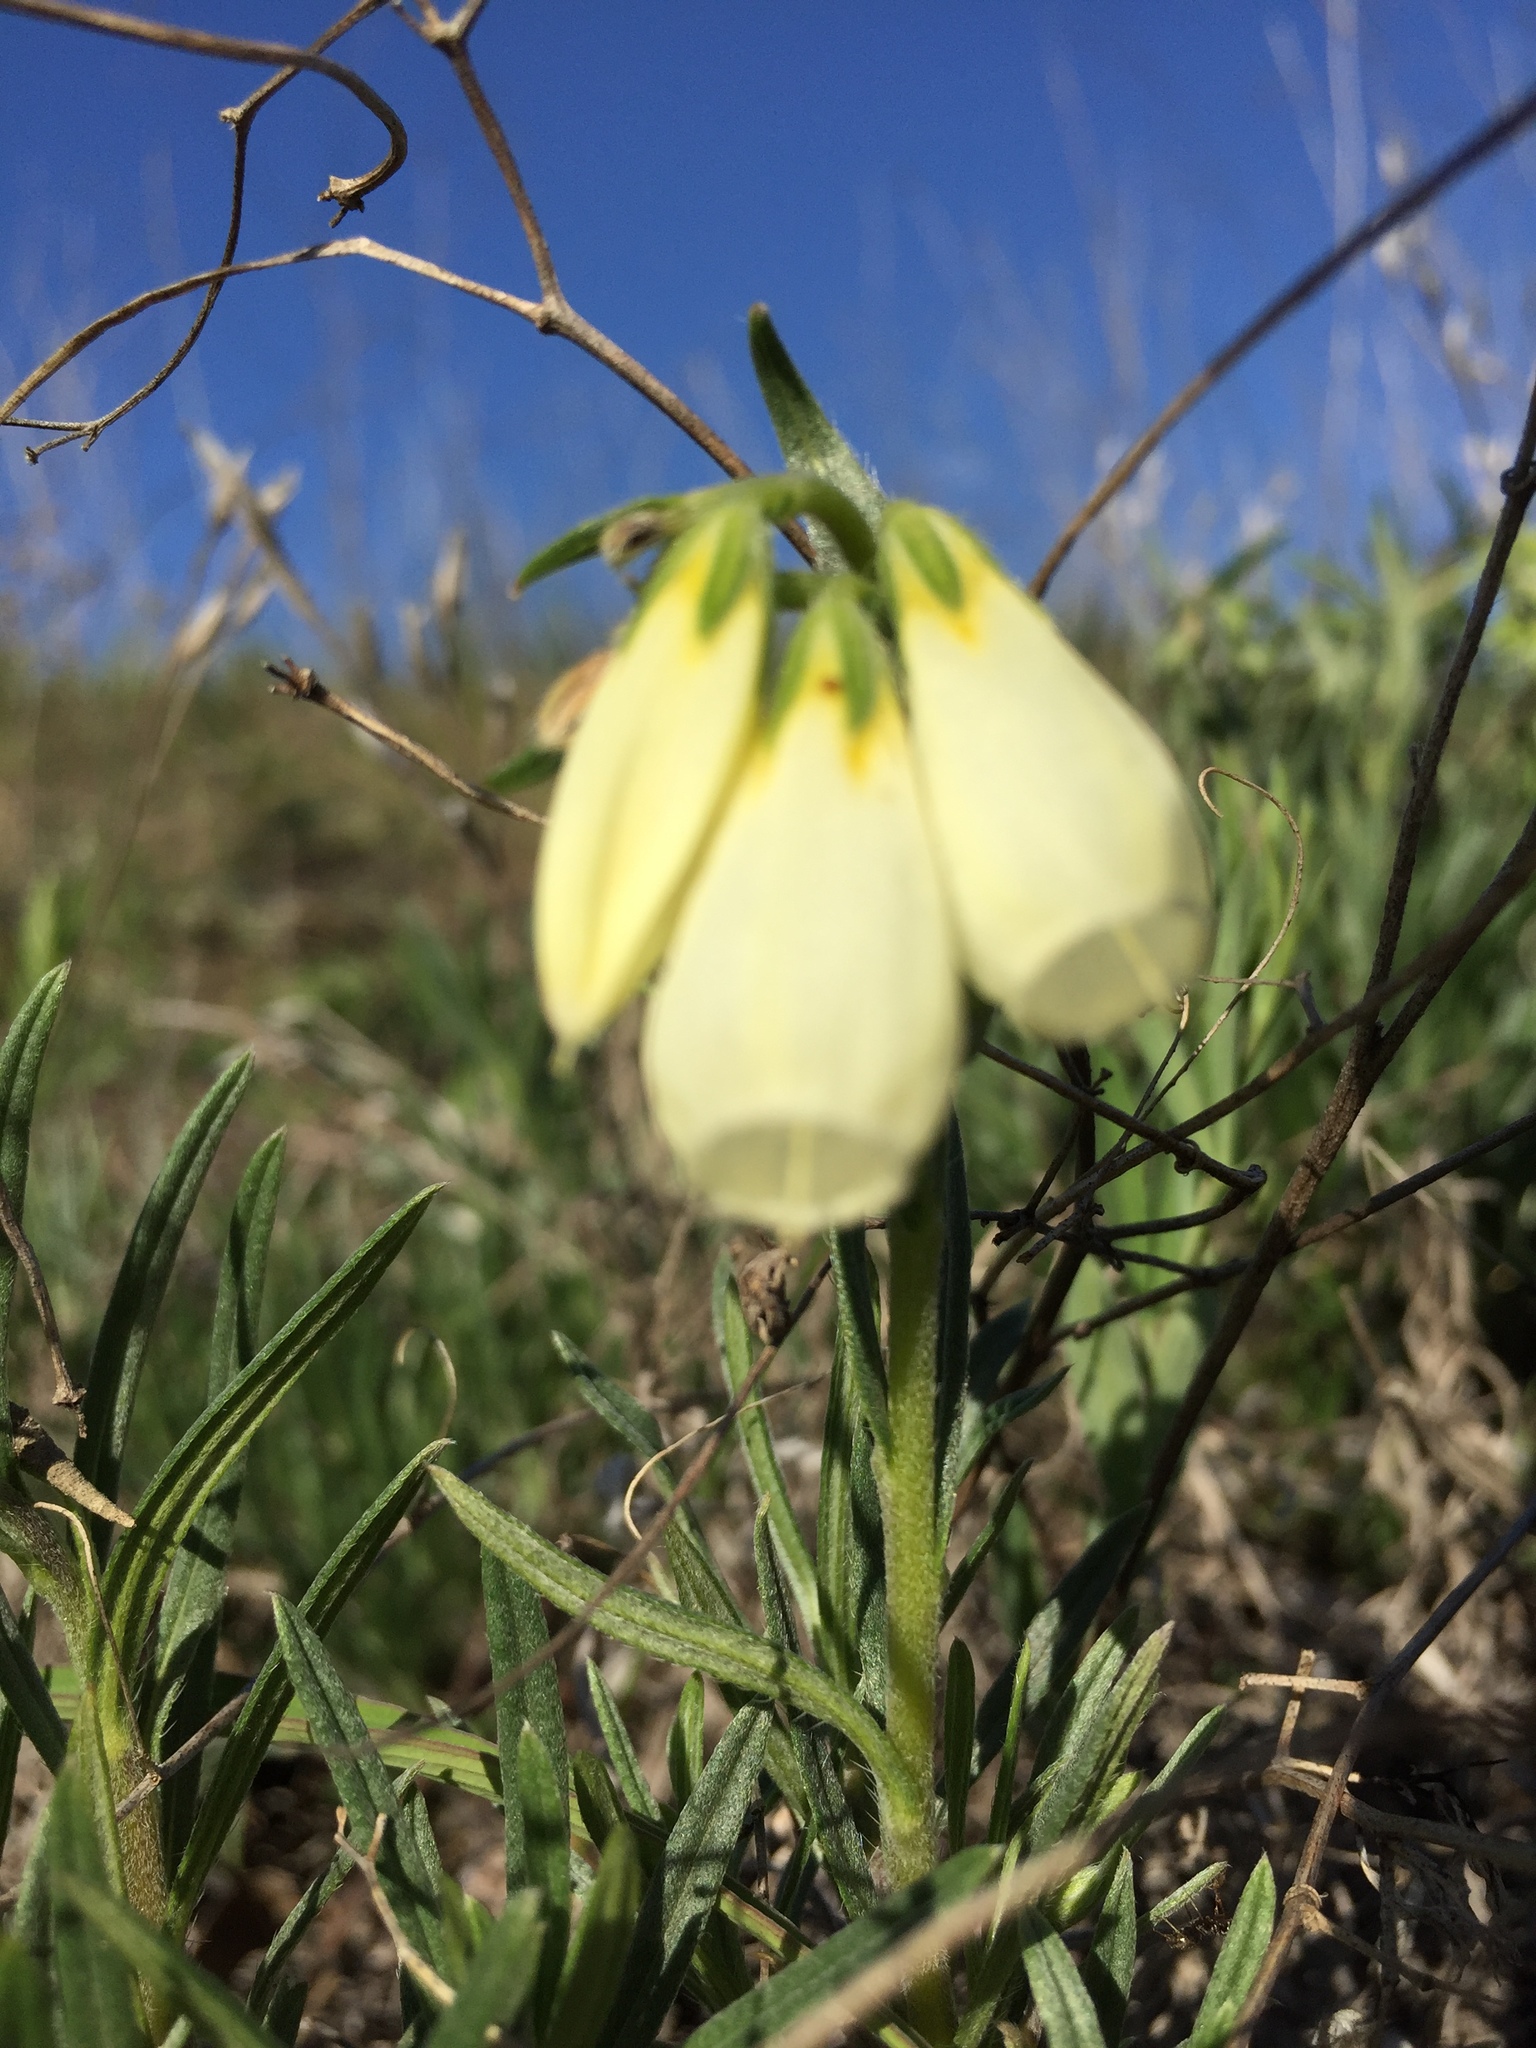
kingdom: Plantae
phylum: Tracheophyta
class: Magnoliopsida
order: Boraginales
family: Boraginaceae
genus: Onosma
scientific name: Onosma simplicissima
